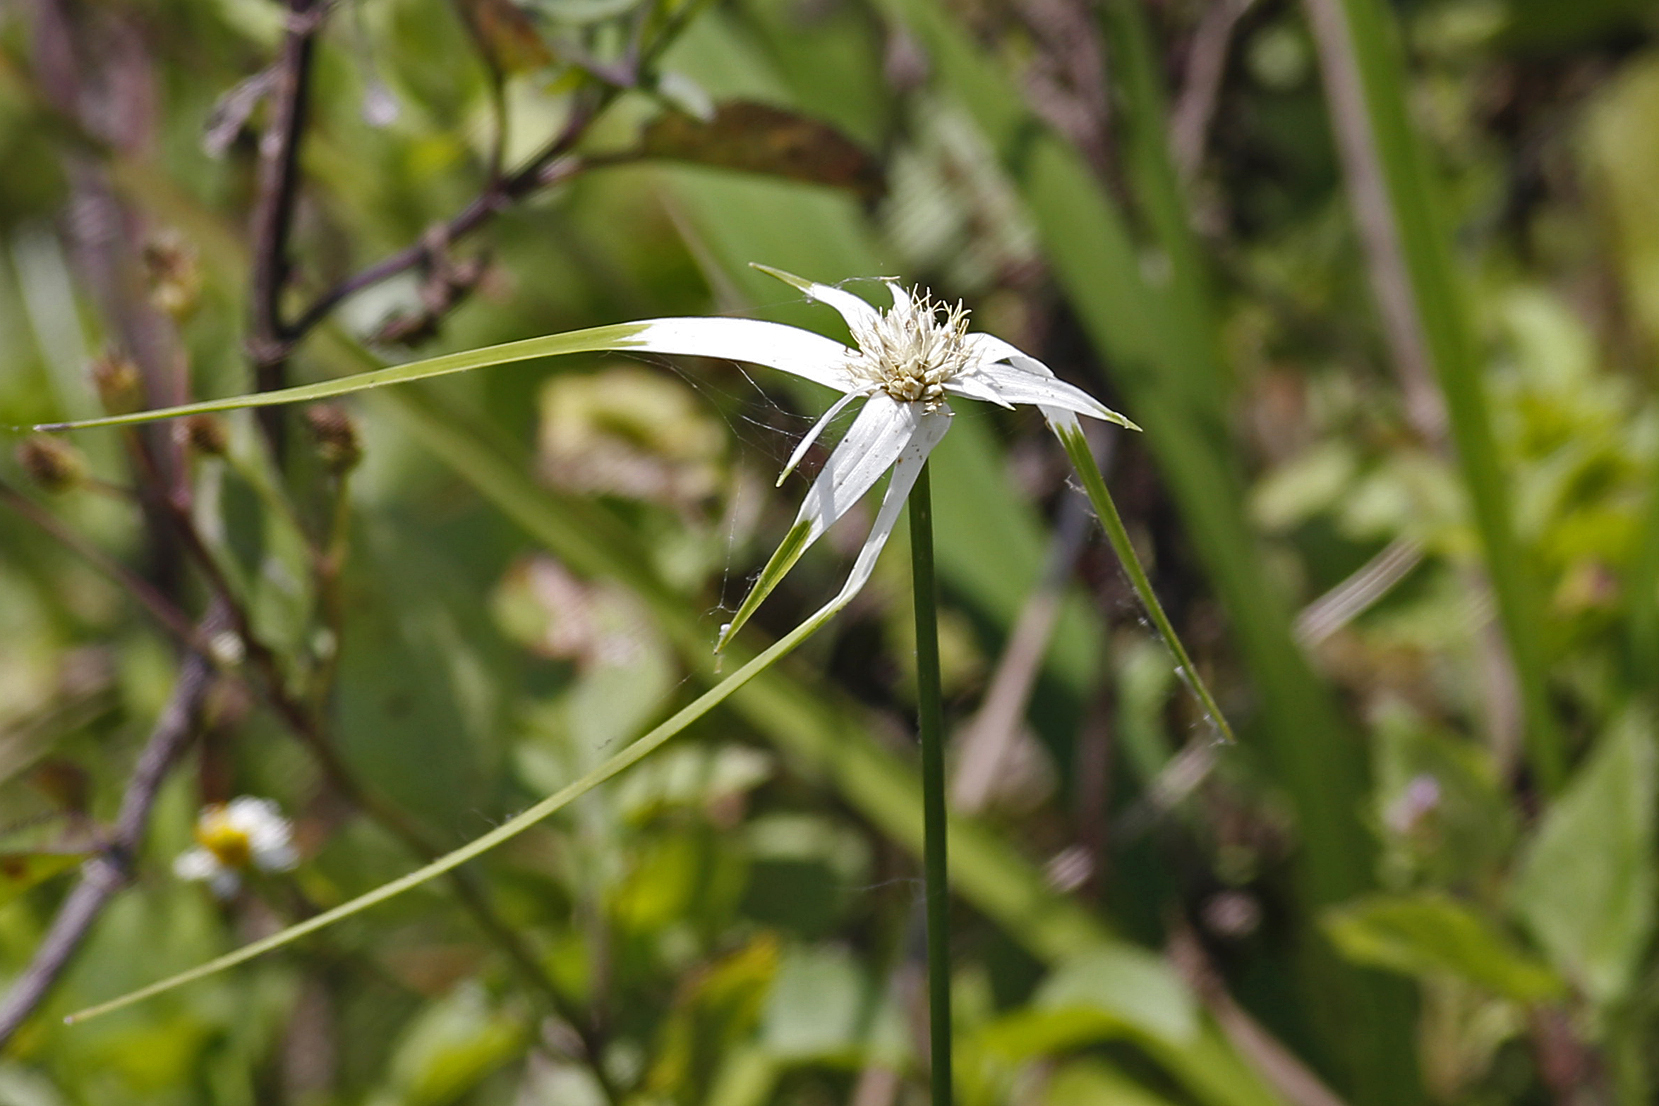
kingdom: Plantae
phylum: Tracheophyta
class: Liliopsida
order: Poales
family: Cyperaceae
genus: Rhynchospora
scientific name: Rhynchospora colorata
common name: Star sedge
